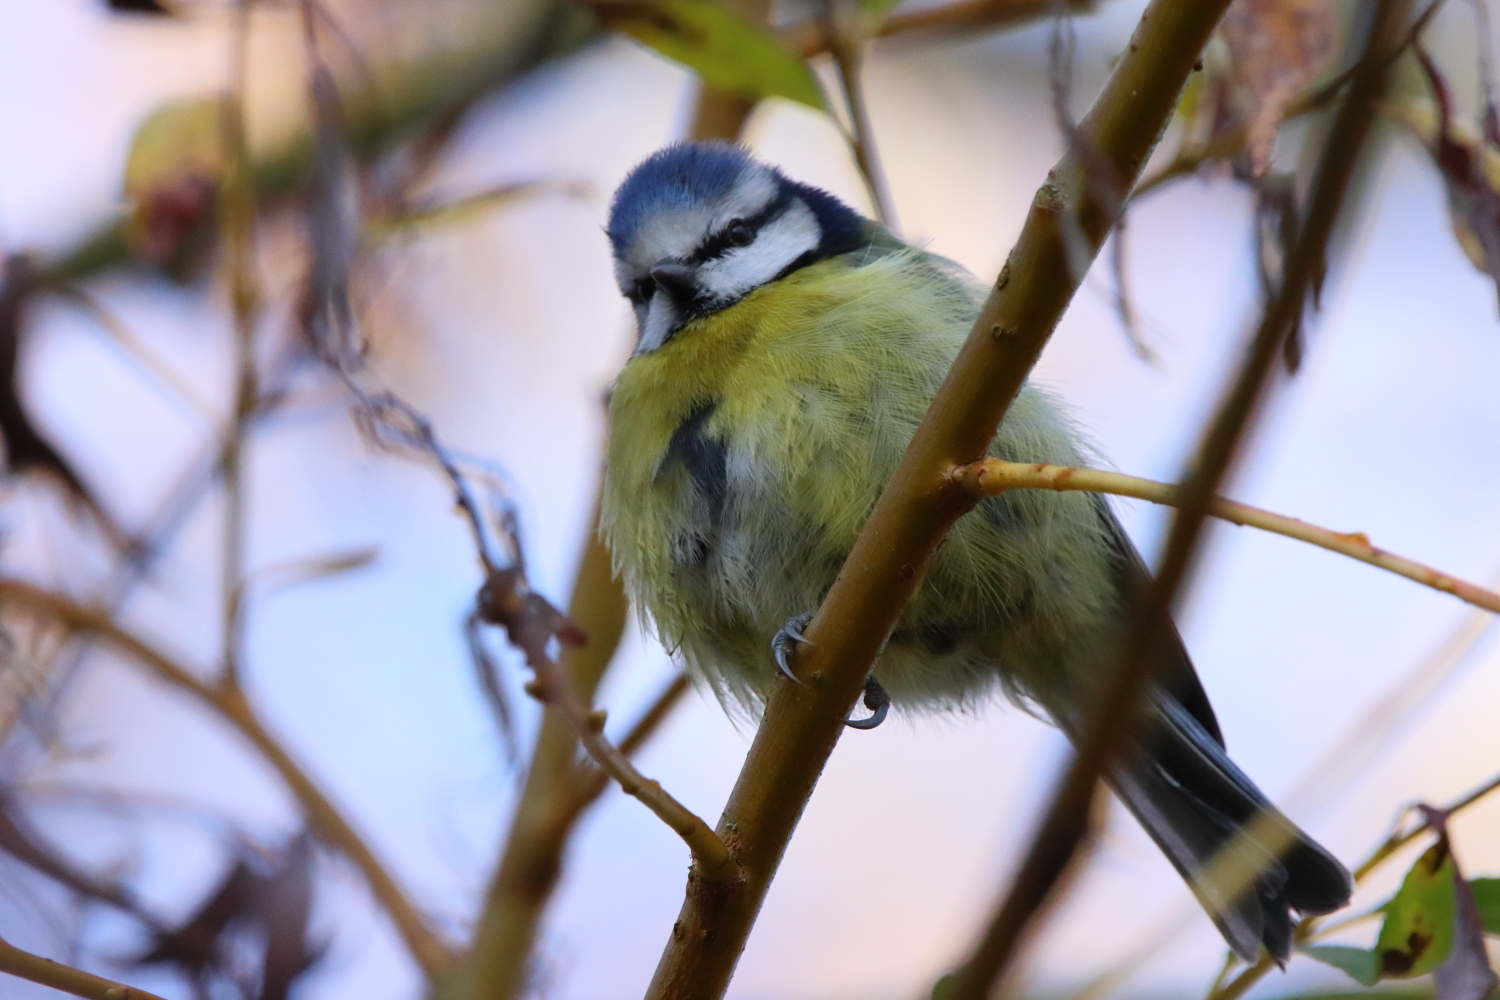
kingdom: Animalia
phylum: Chordata
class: Aves
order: Passeriformes
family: Paridae
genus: Cyanistes
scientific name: Cyanistes caeruleus
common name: Eurasian blue tit
